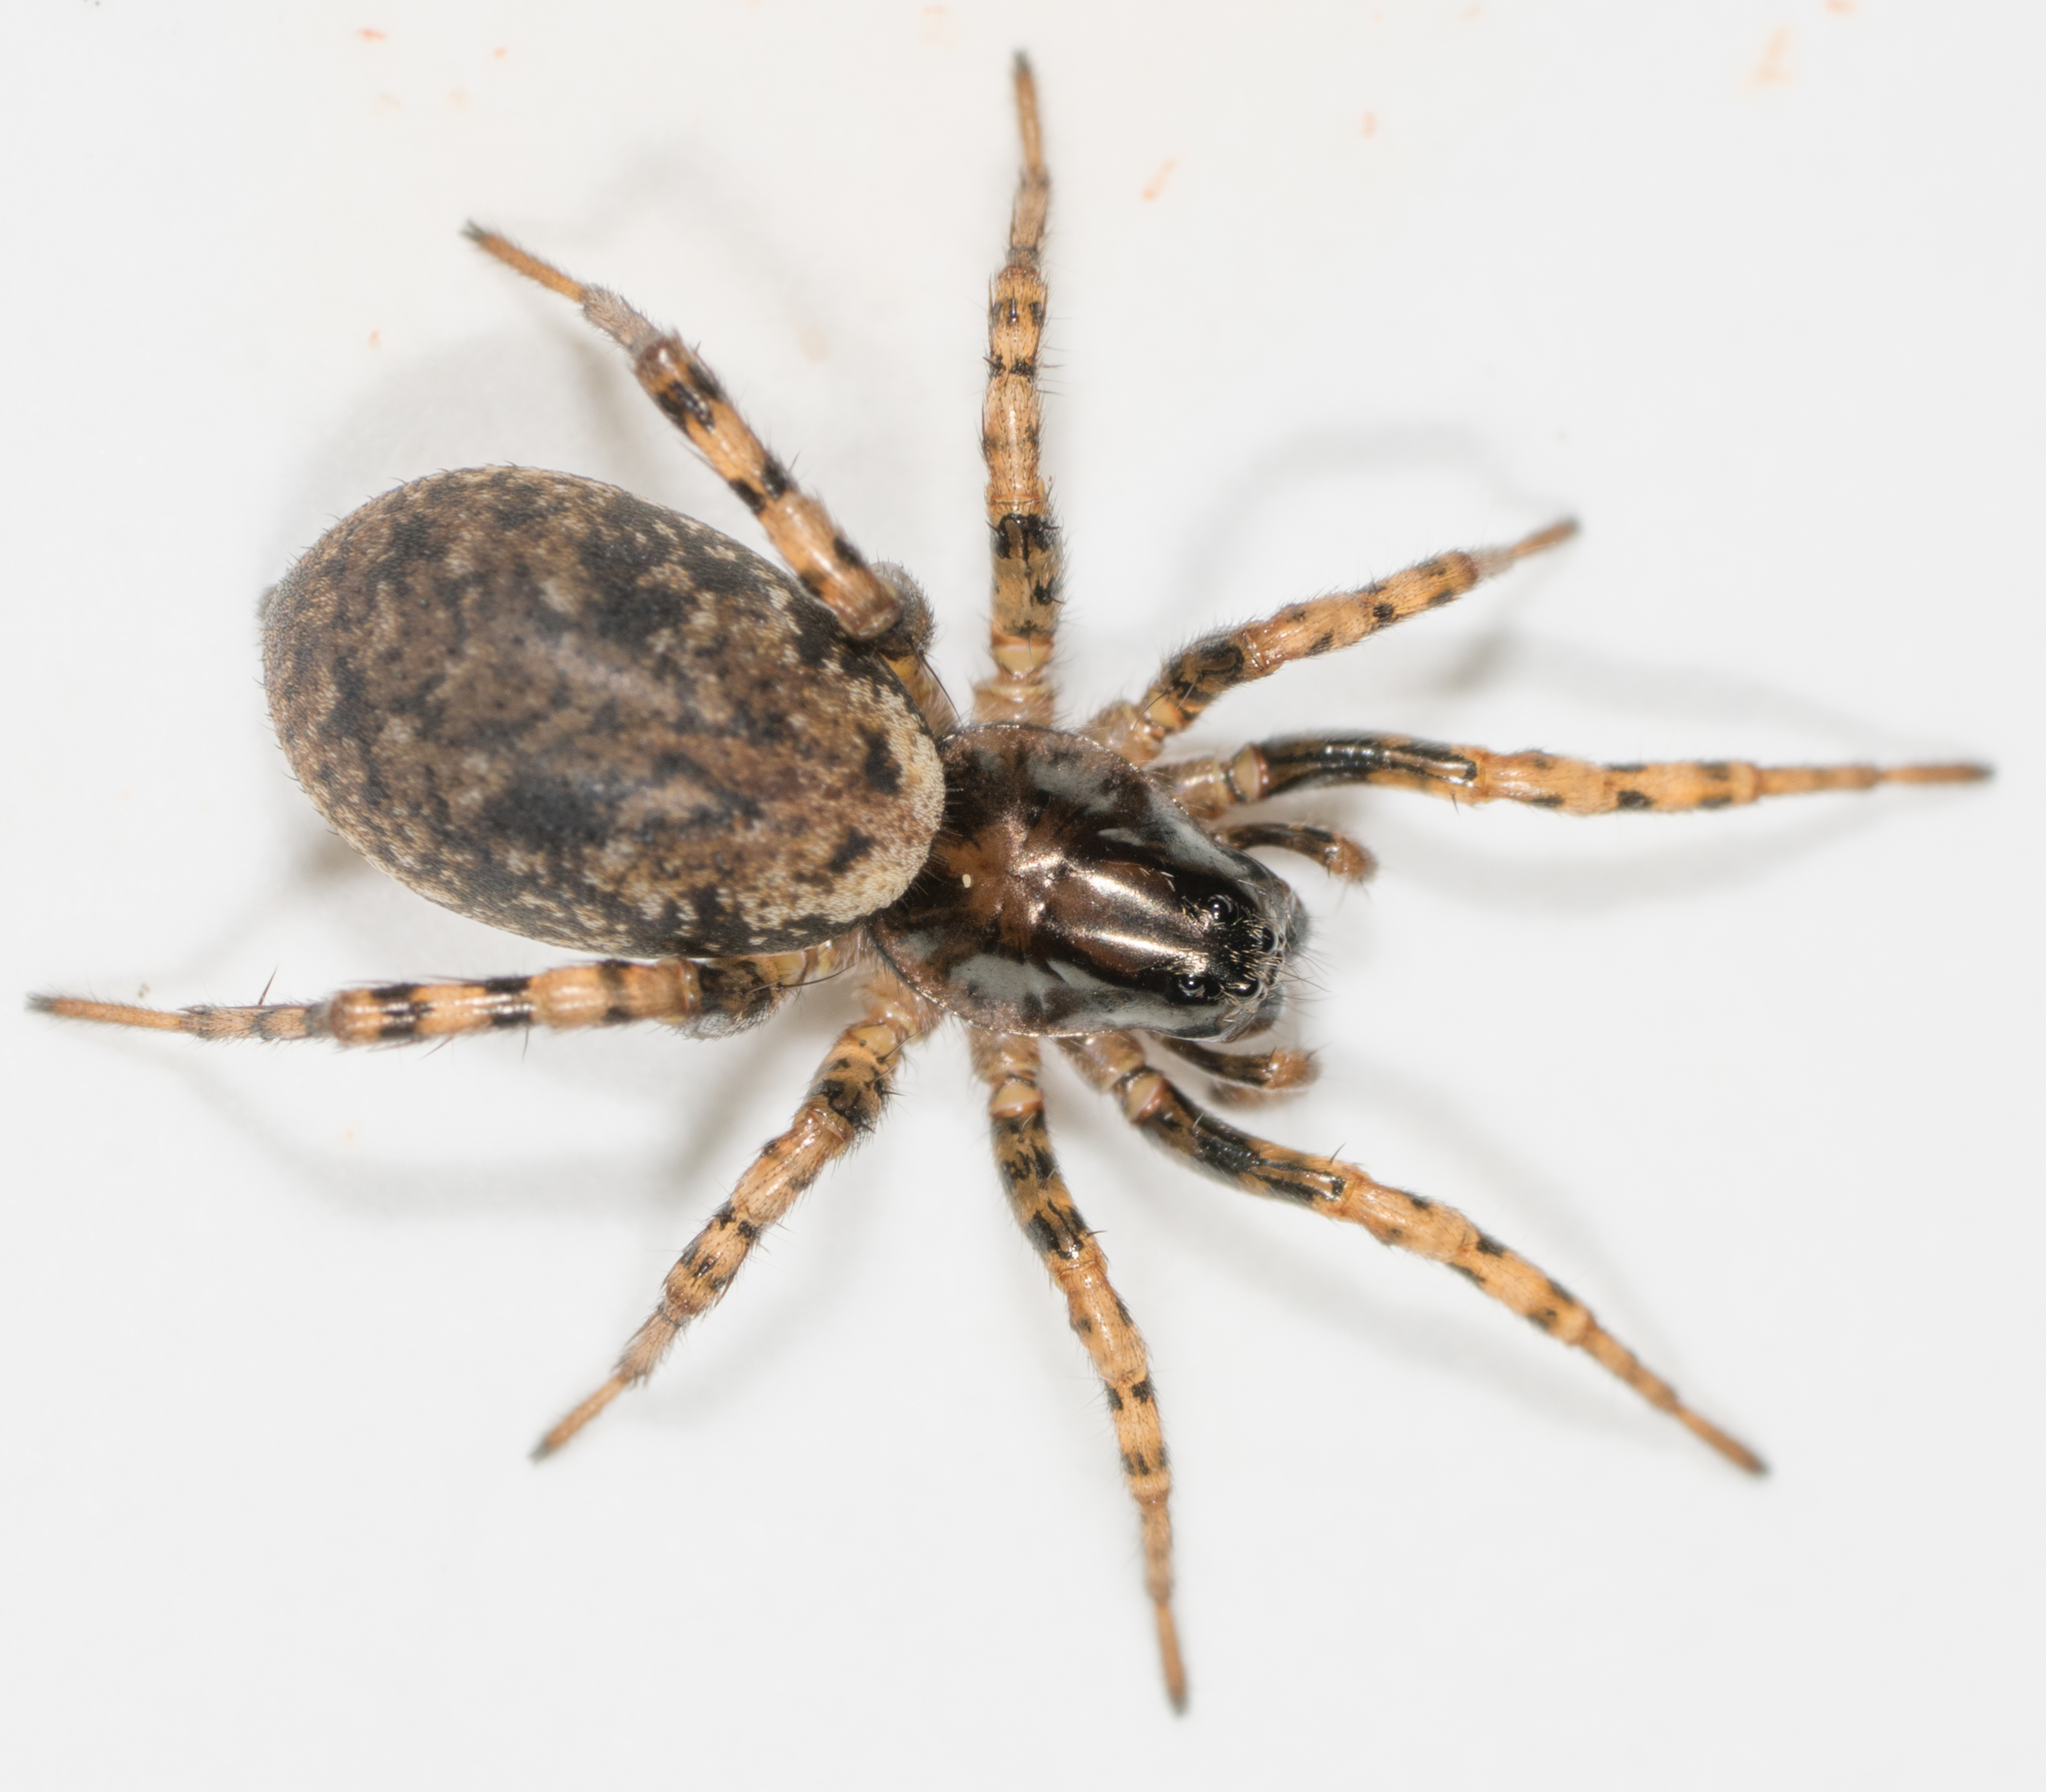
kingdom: Animalia
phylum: Arthropoda
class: Arachnida
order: Araneae
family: Lycosidae
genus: Allocosa
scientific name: Allocosa subparva
